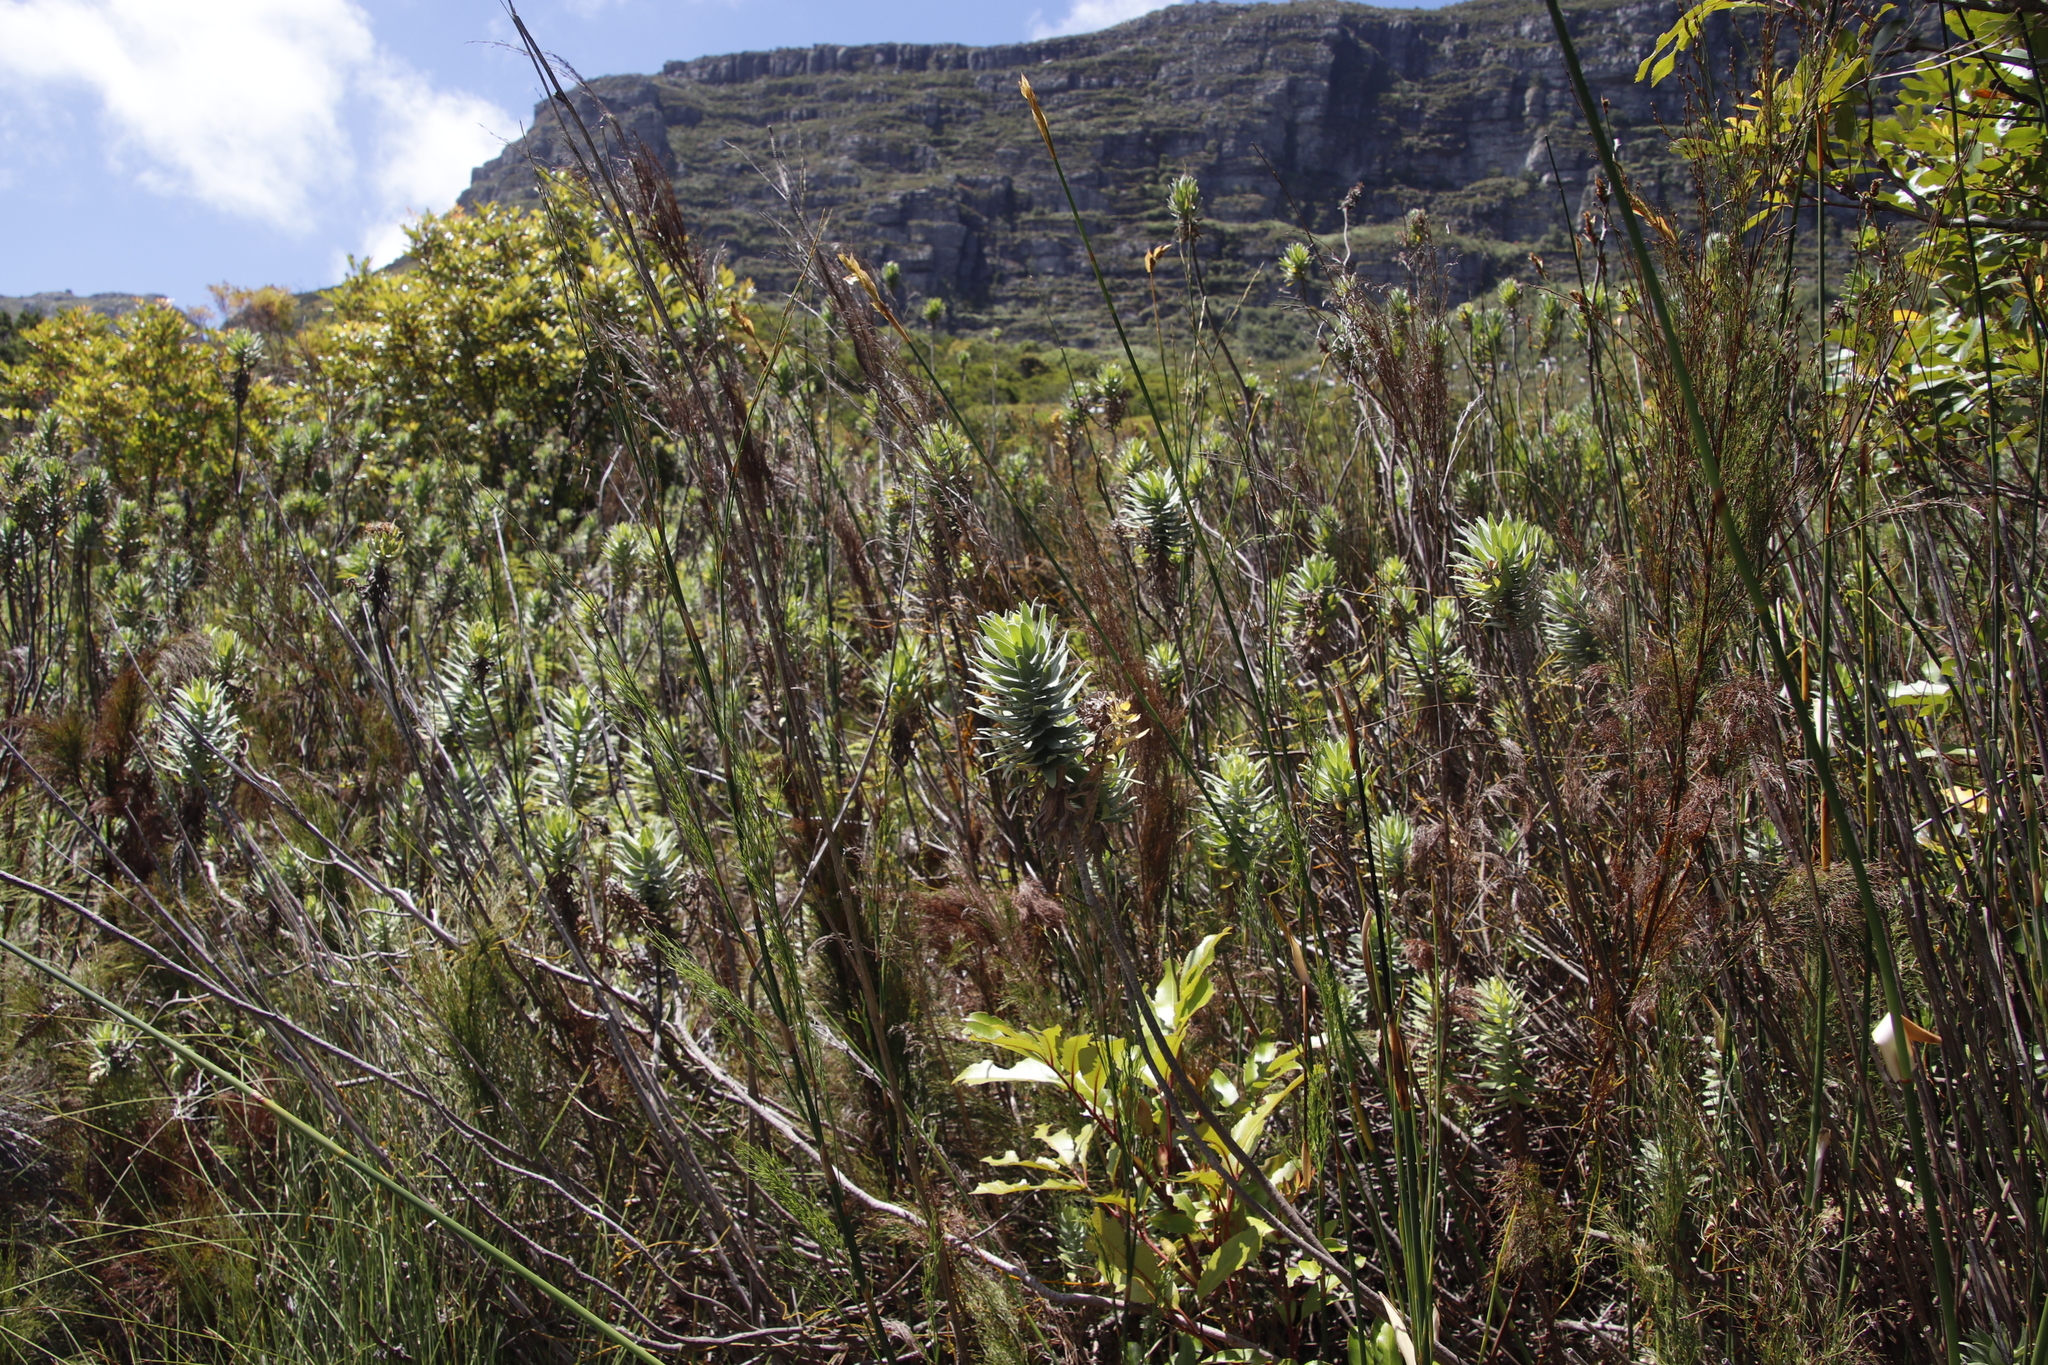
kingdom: Plantae
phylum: Tracheophyta
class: Magnoliopsida
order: Asterales
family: Asteraceae
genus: Osmitopsis
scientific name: Osmitopsis asteriscoides
